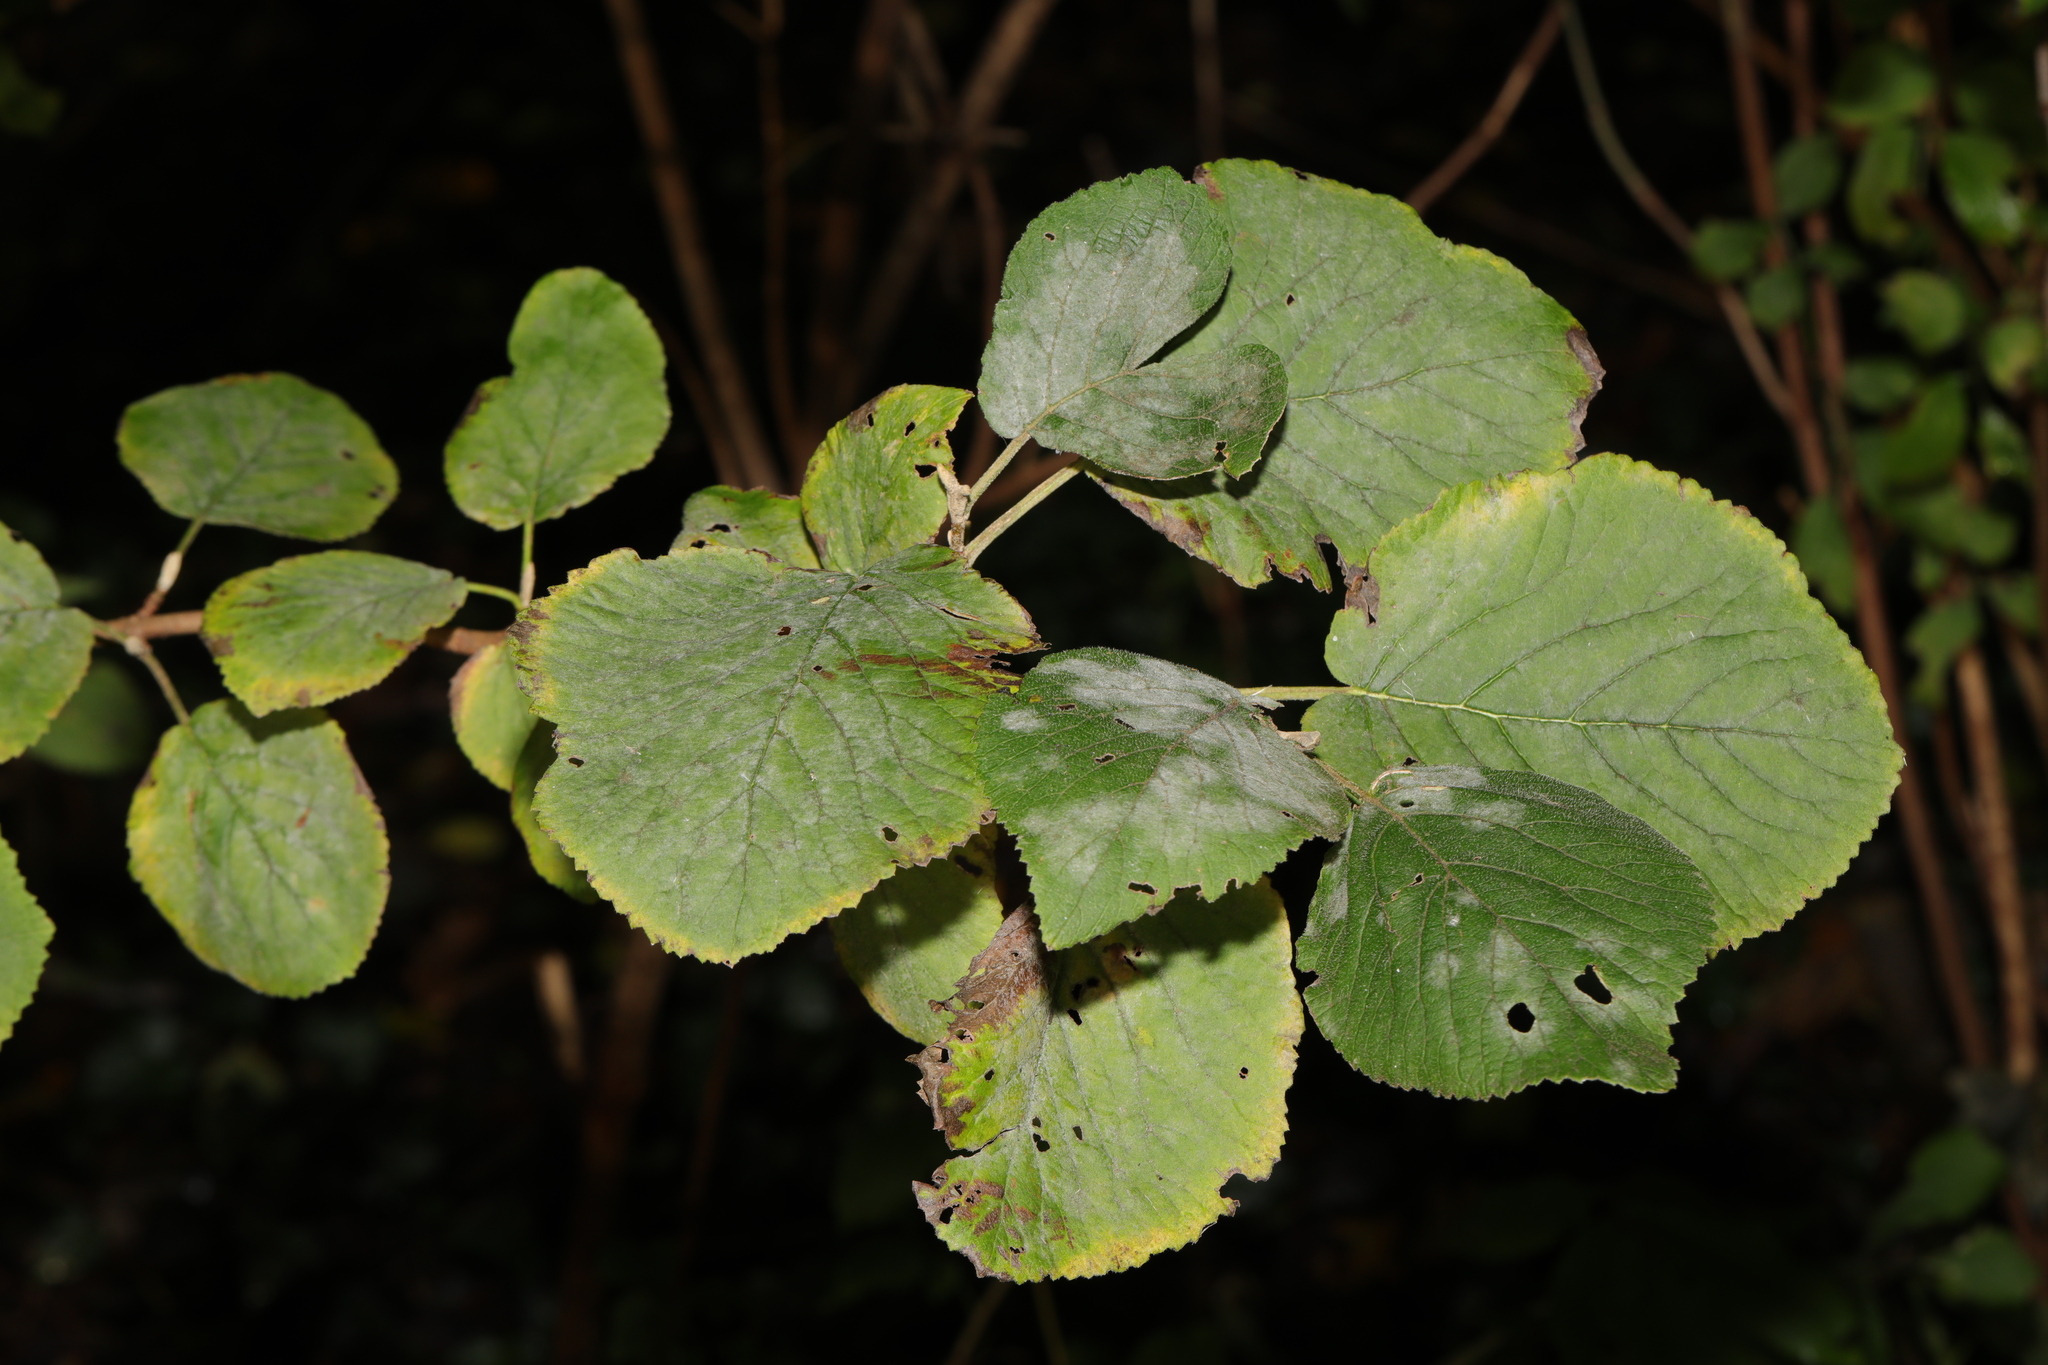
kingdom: Plantae
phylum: Tracheophyta
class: Magnoliopsida
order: Dipsacales
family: Viburnaceae
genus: Viburnum
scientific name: Viburnum lantana
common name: Wayfaring tree
